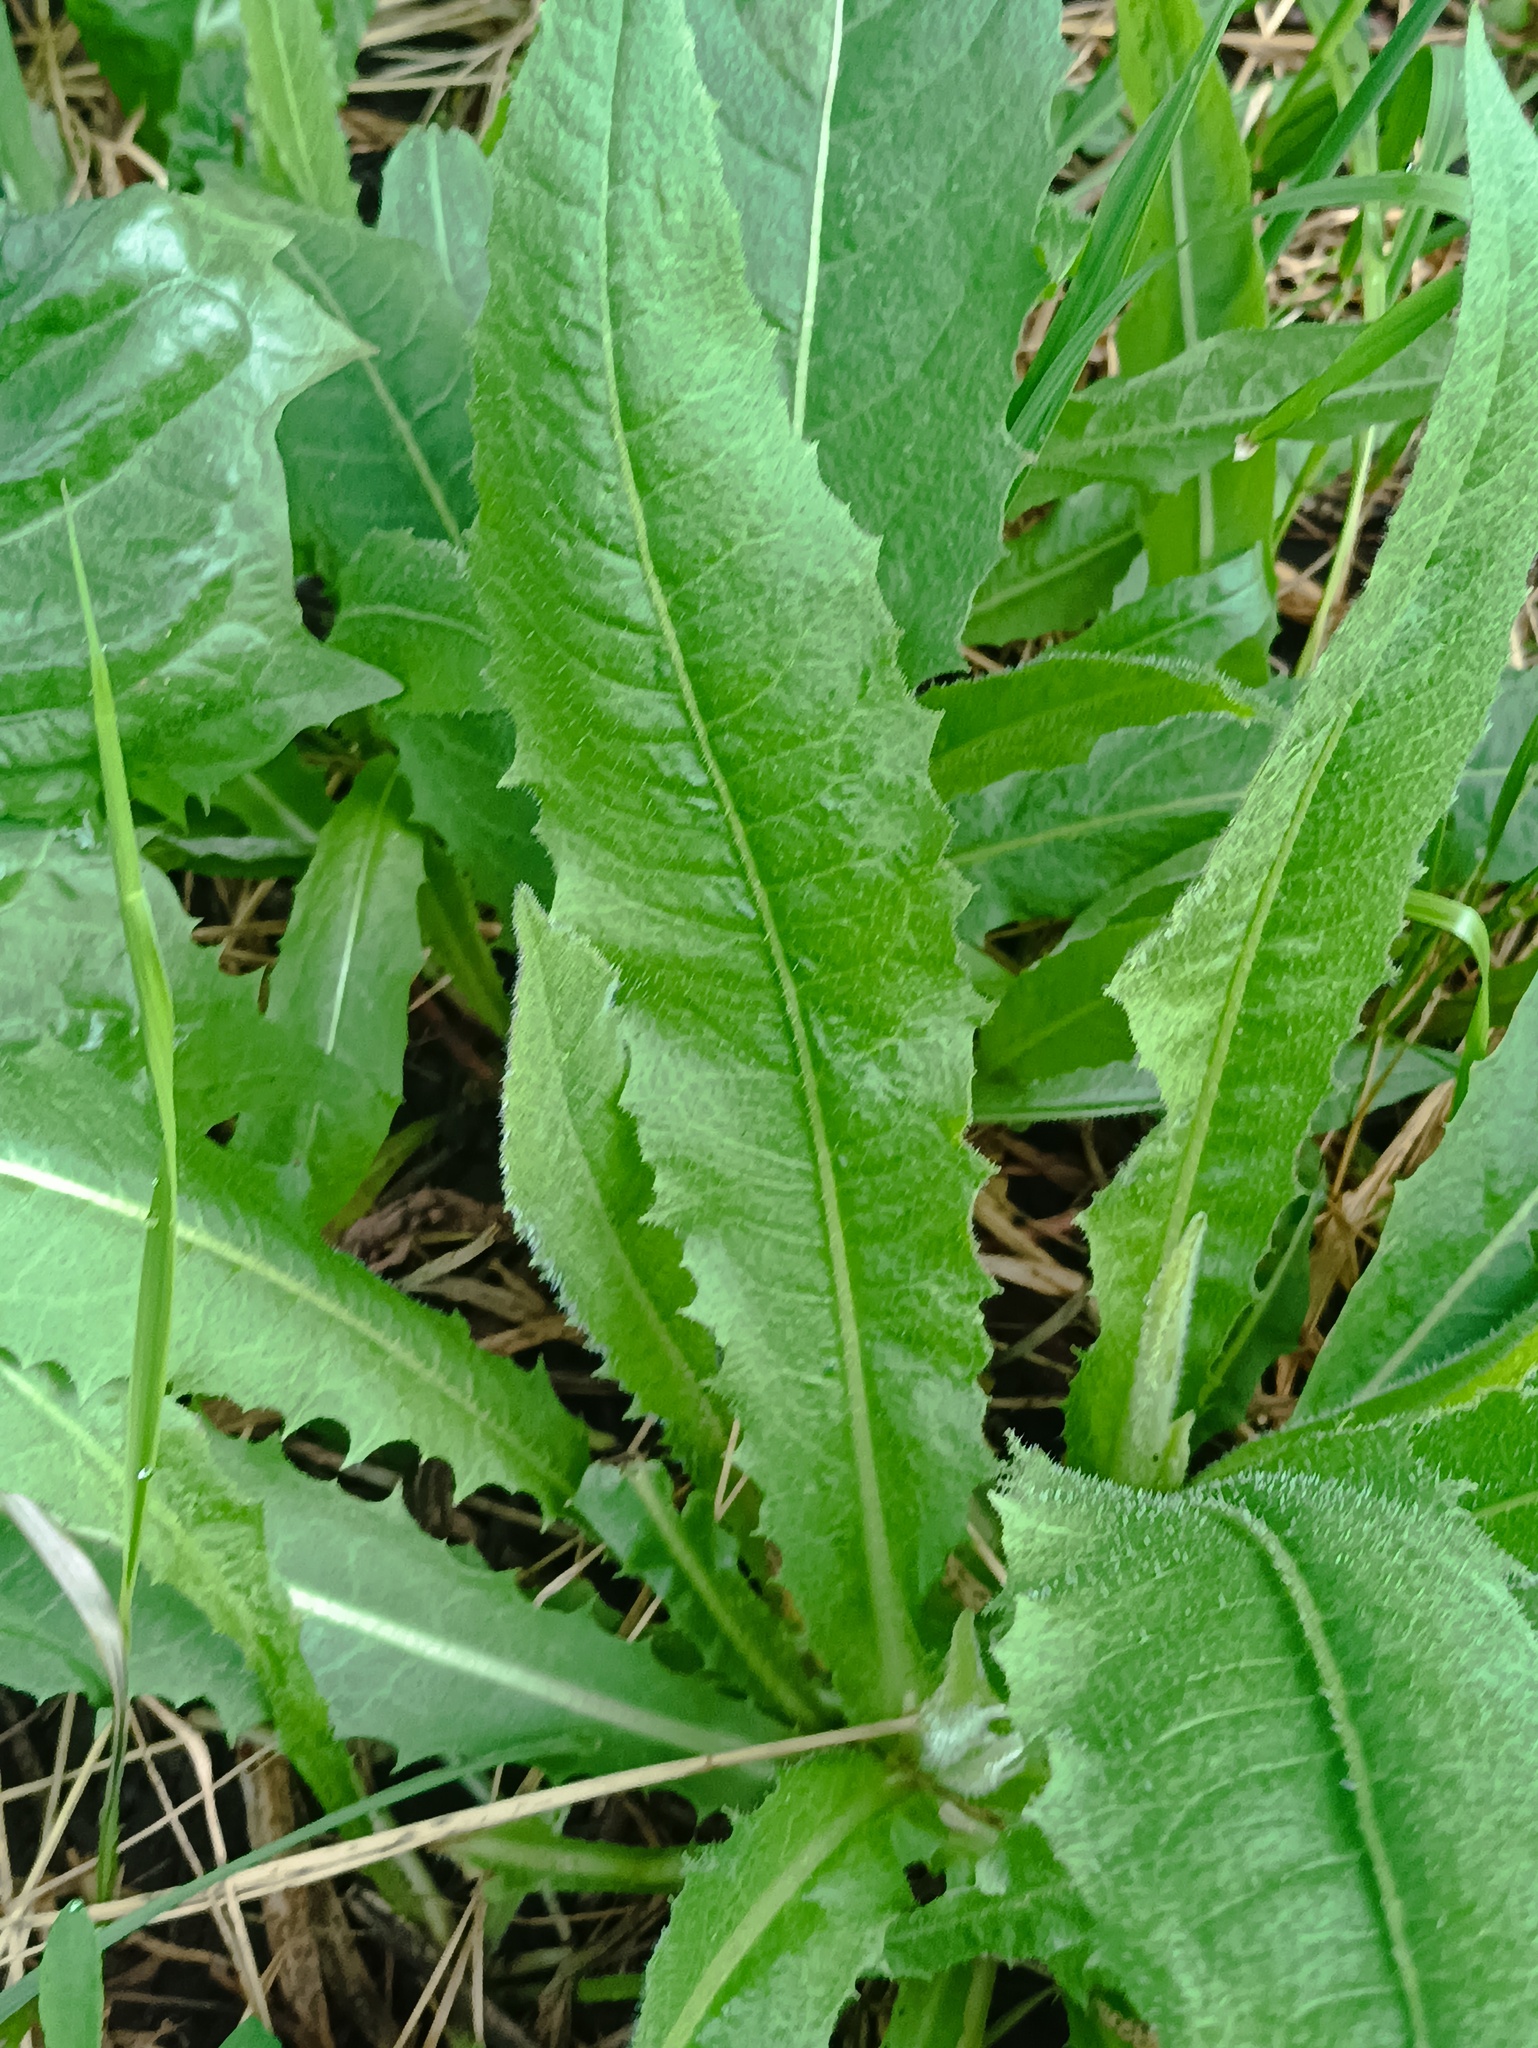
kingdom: Plantae
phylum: Tracheophyta
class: Magnoliopsida
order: Asterales
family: Asteraceae
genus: Cichorium
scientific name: Cichorium intybus
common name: Chicory
